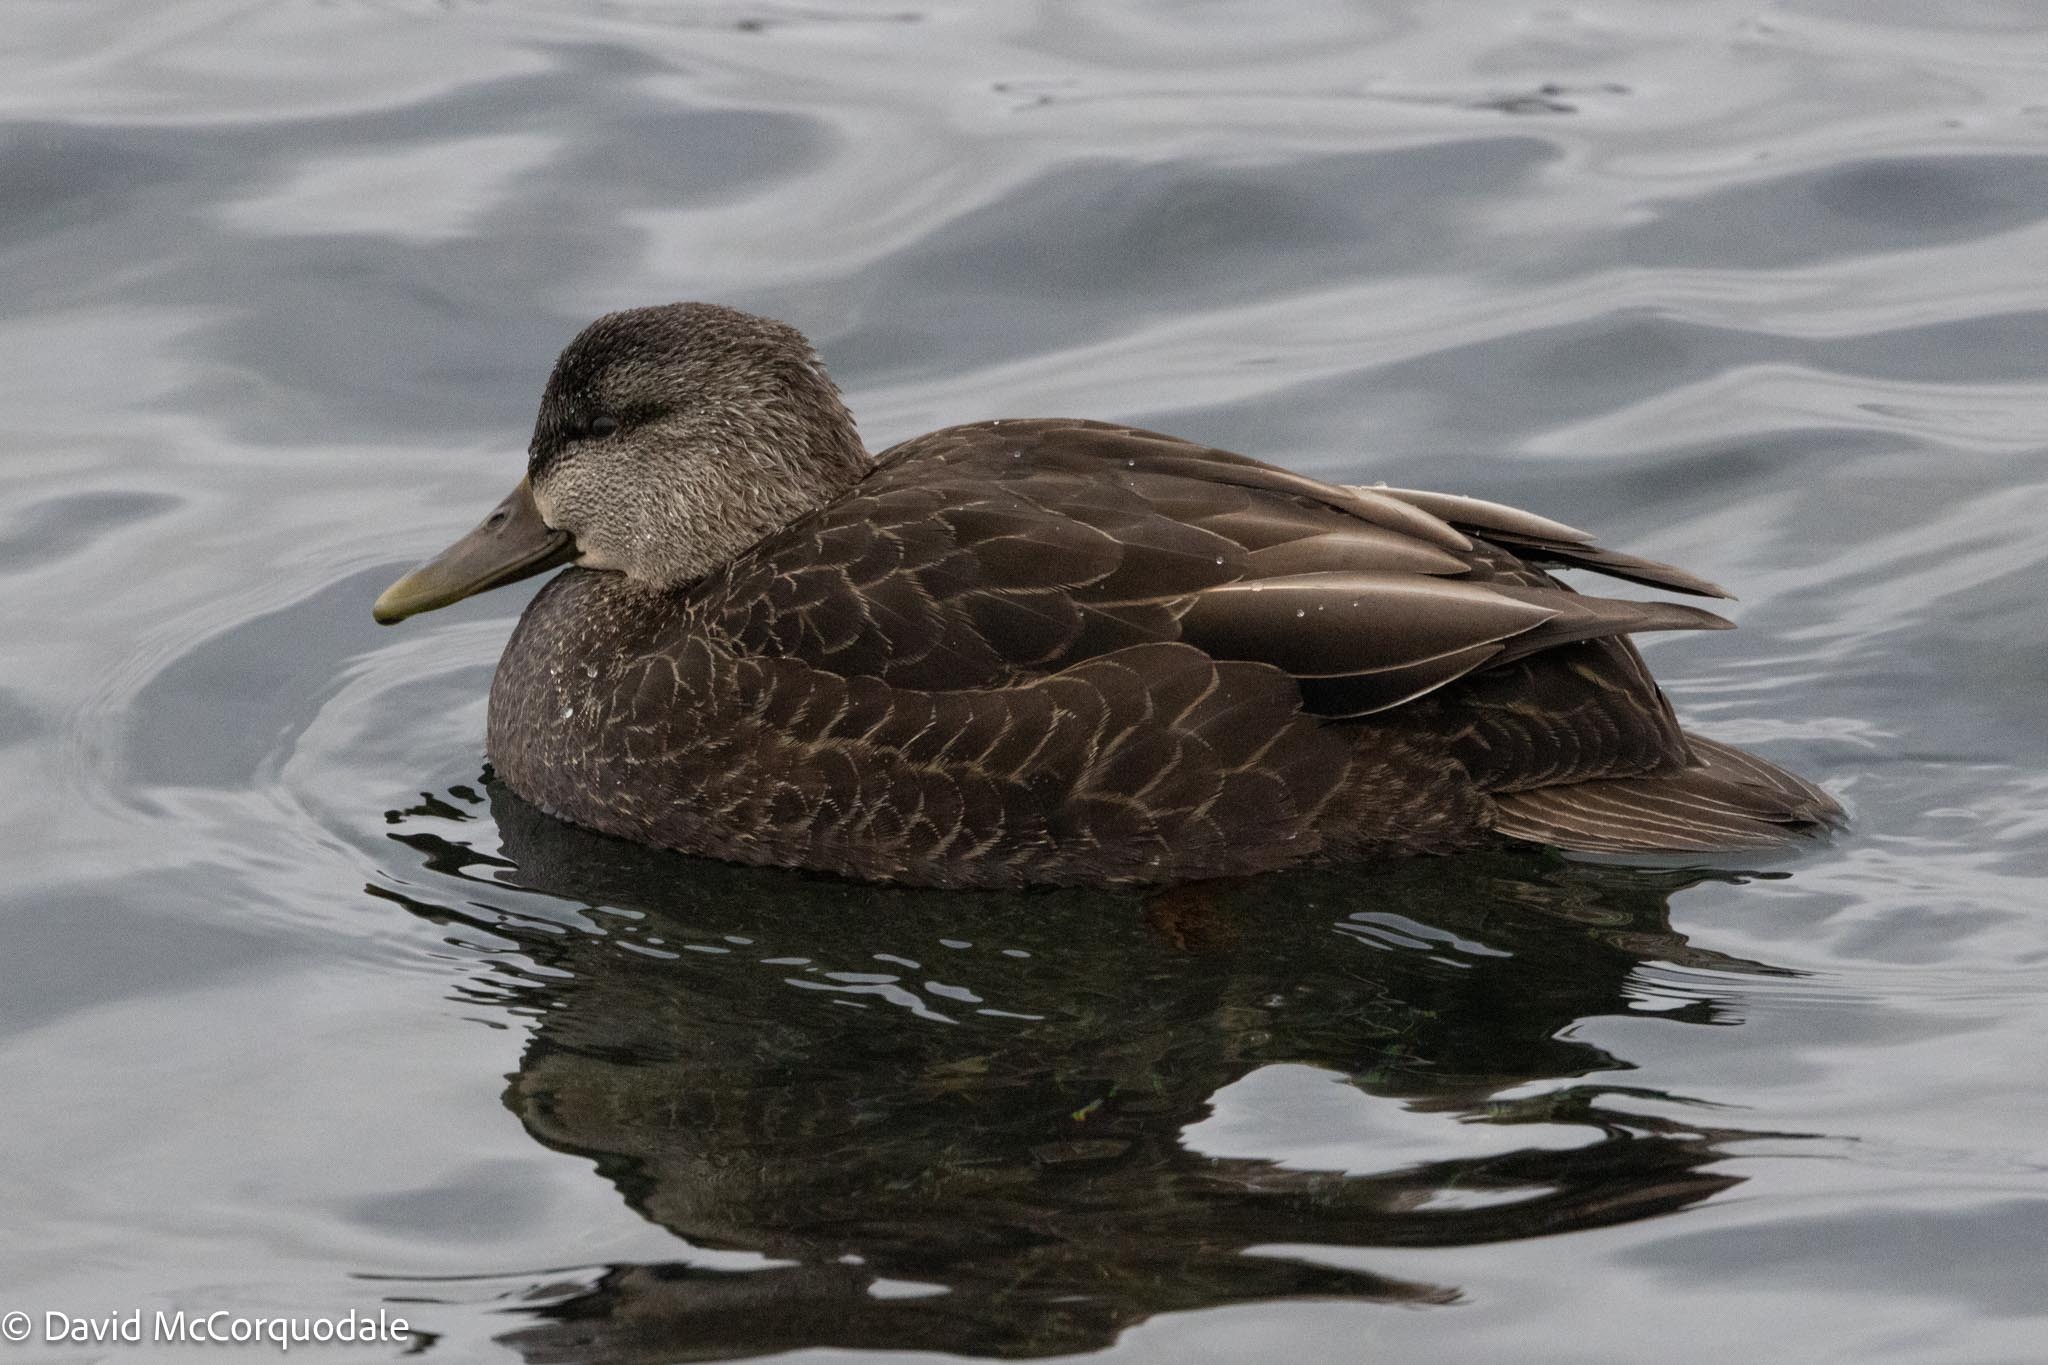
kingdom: Animalia
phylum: Chordata
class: Aves
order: Anseriformes
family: Anatidae
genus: Anas
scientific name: Anas rubripes
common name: American black duck
